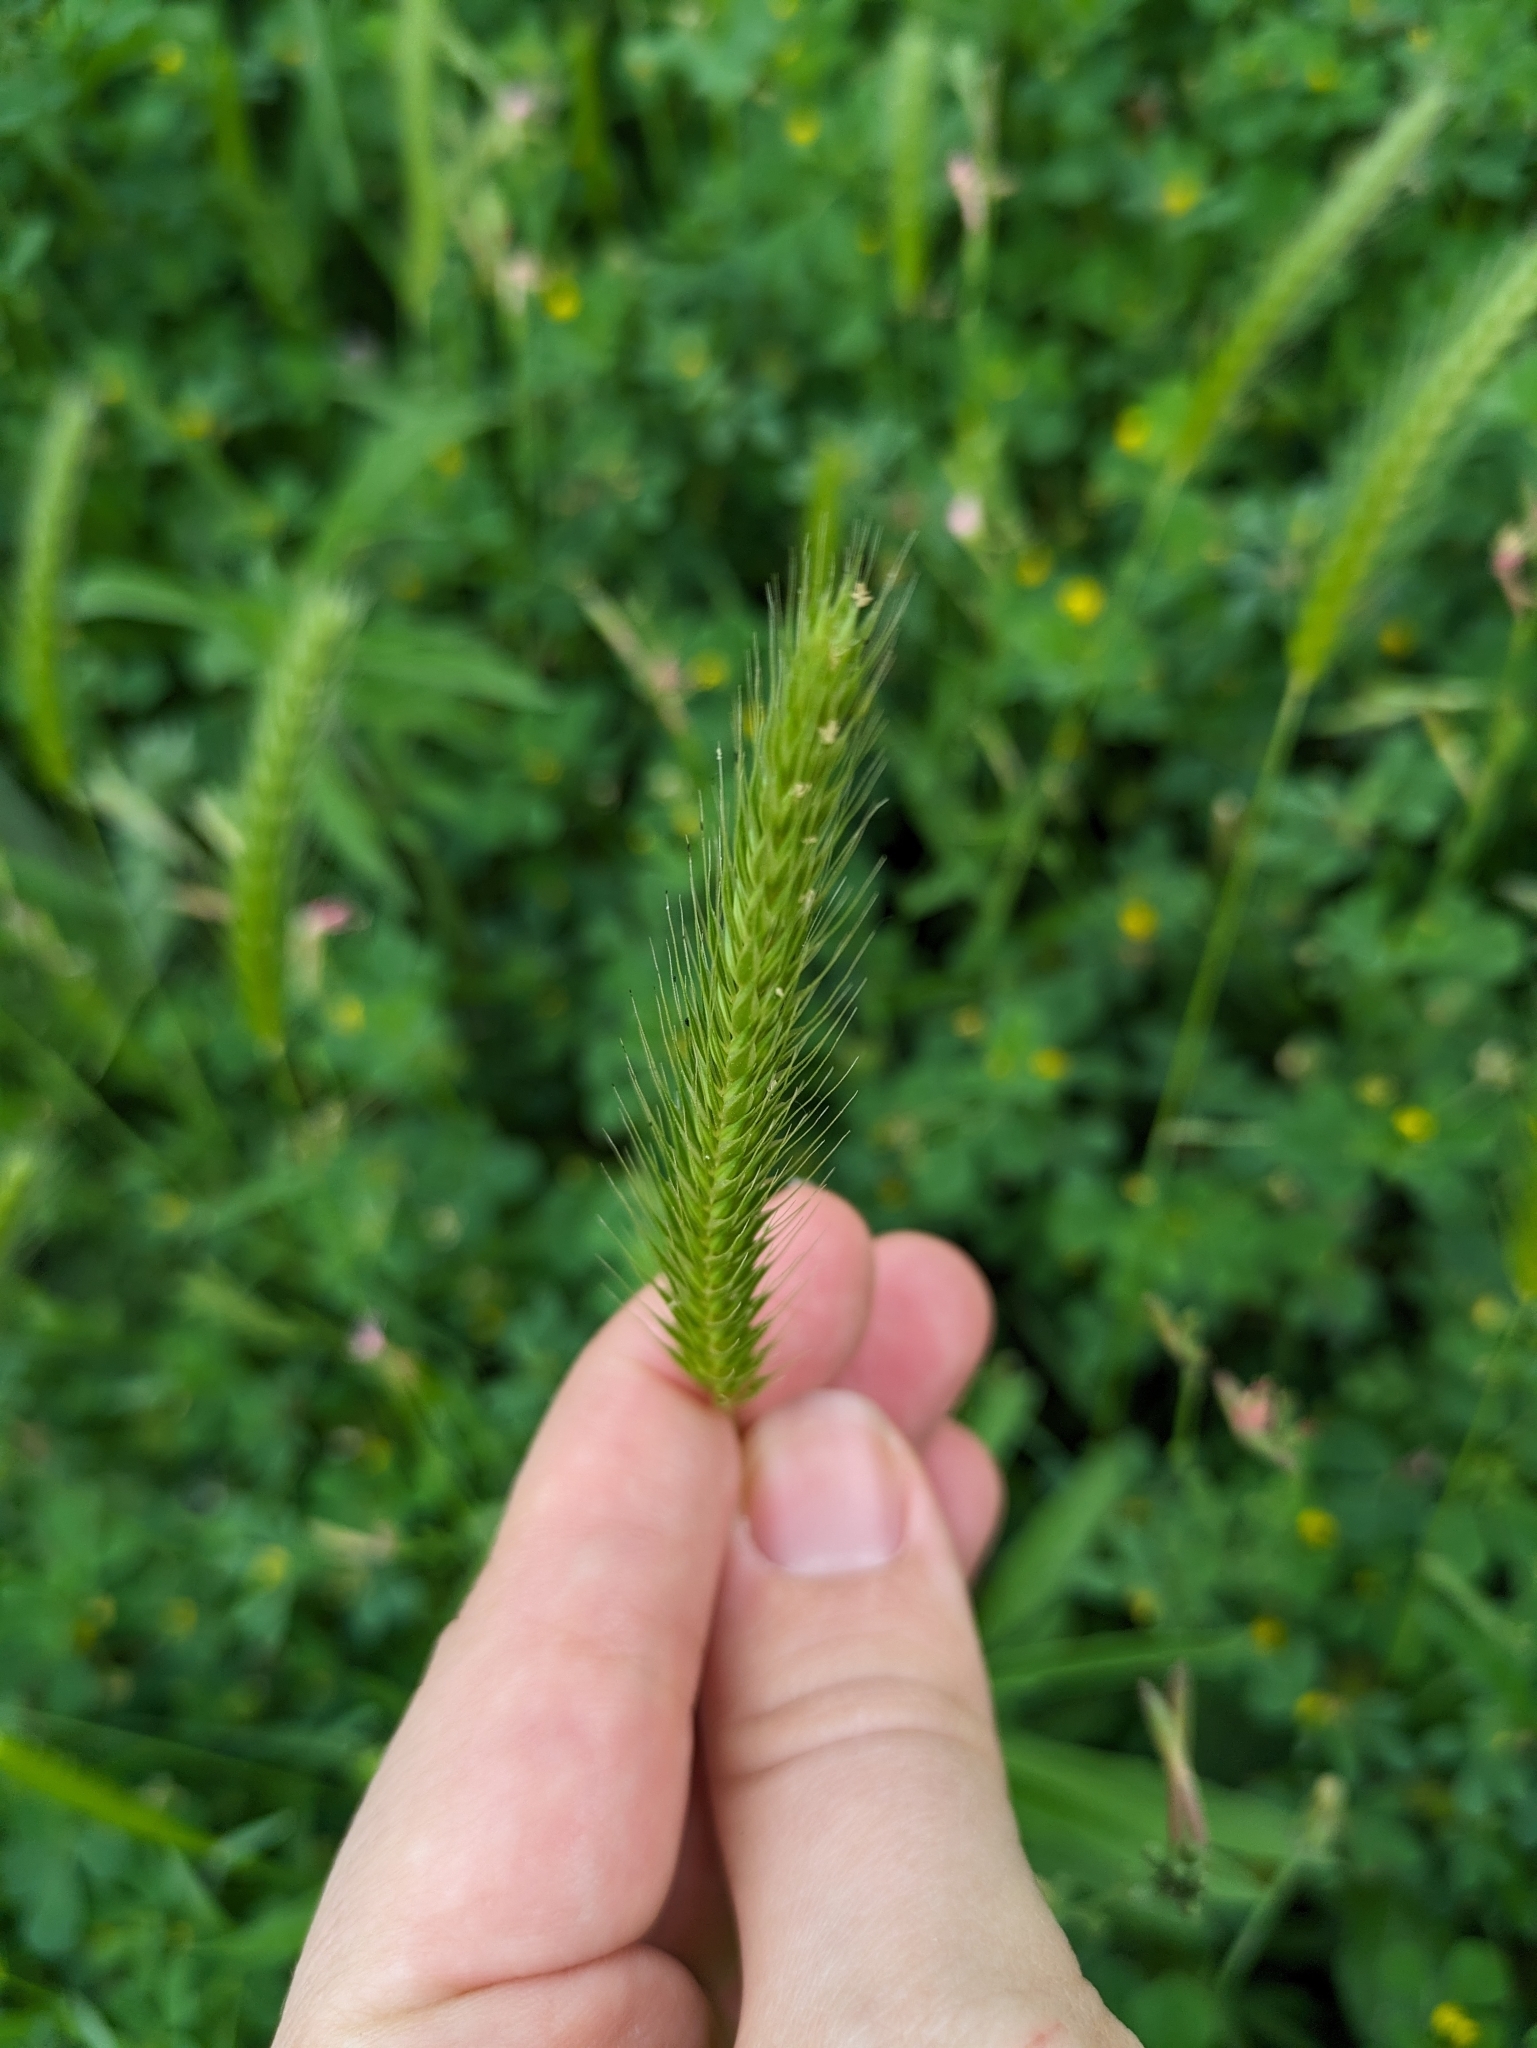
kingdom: Plantae
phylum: Tracheophyta
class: Liliopsida
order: Poales
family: Poaceae
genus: Hordeum
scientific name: Hordeum pusillum
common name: Little barley
